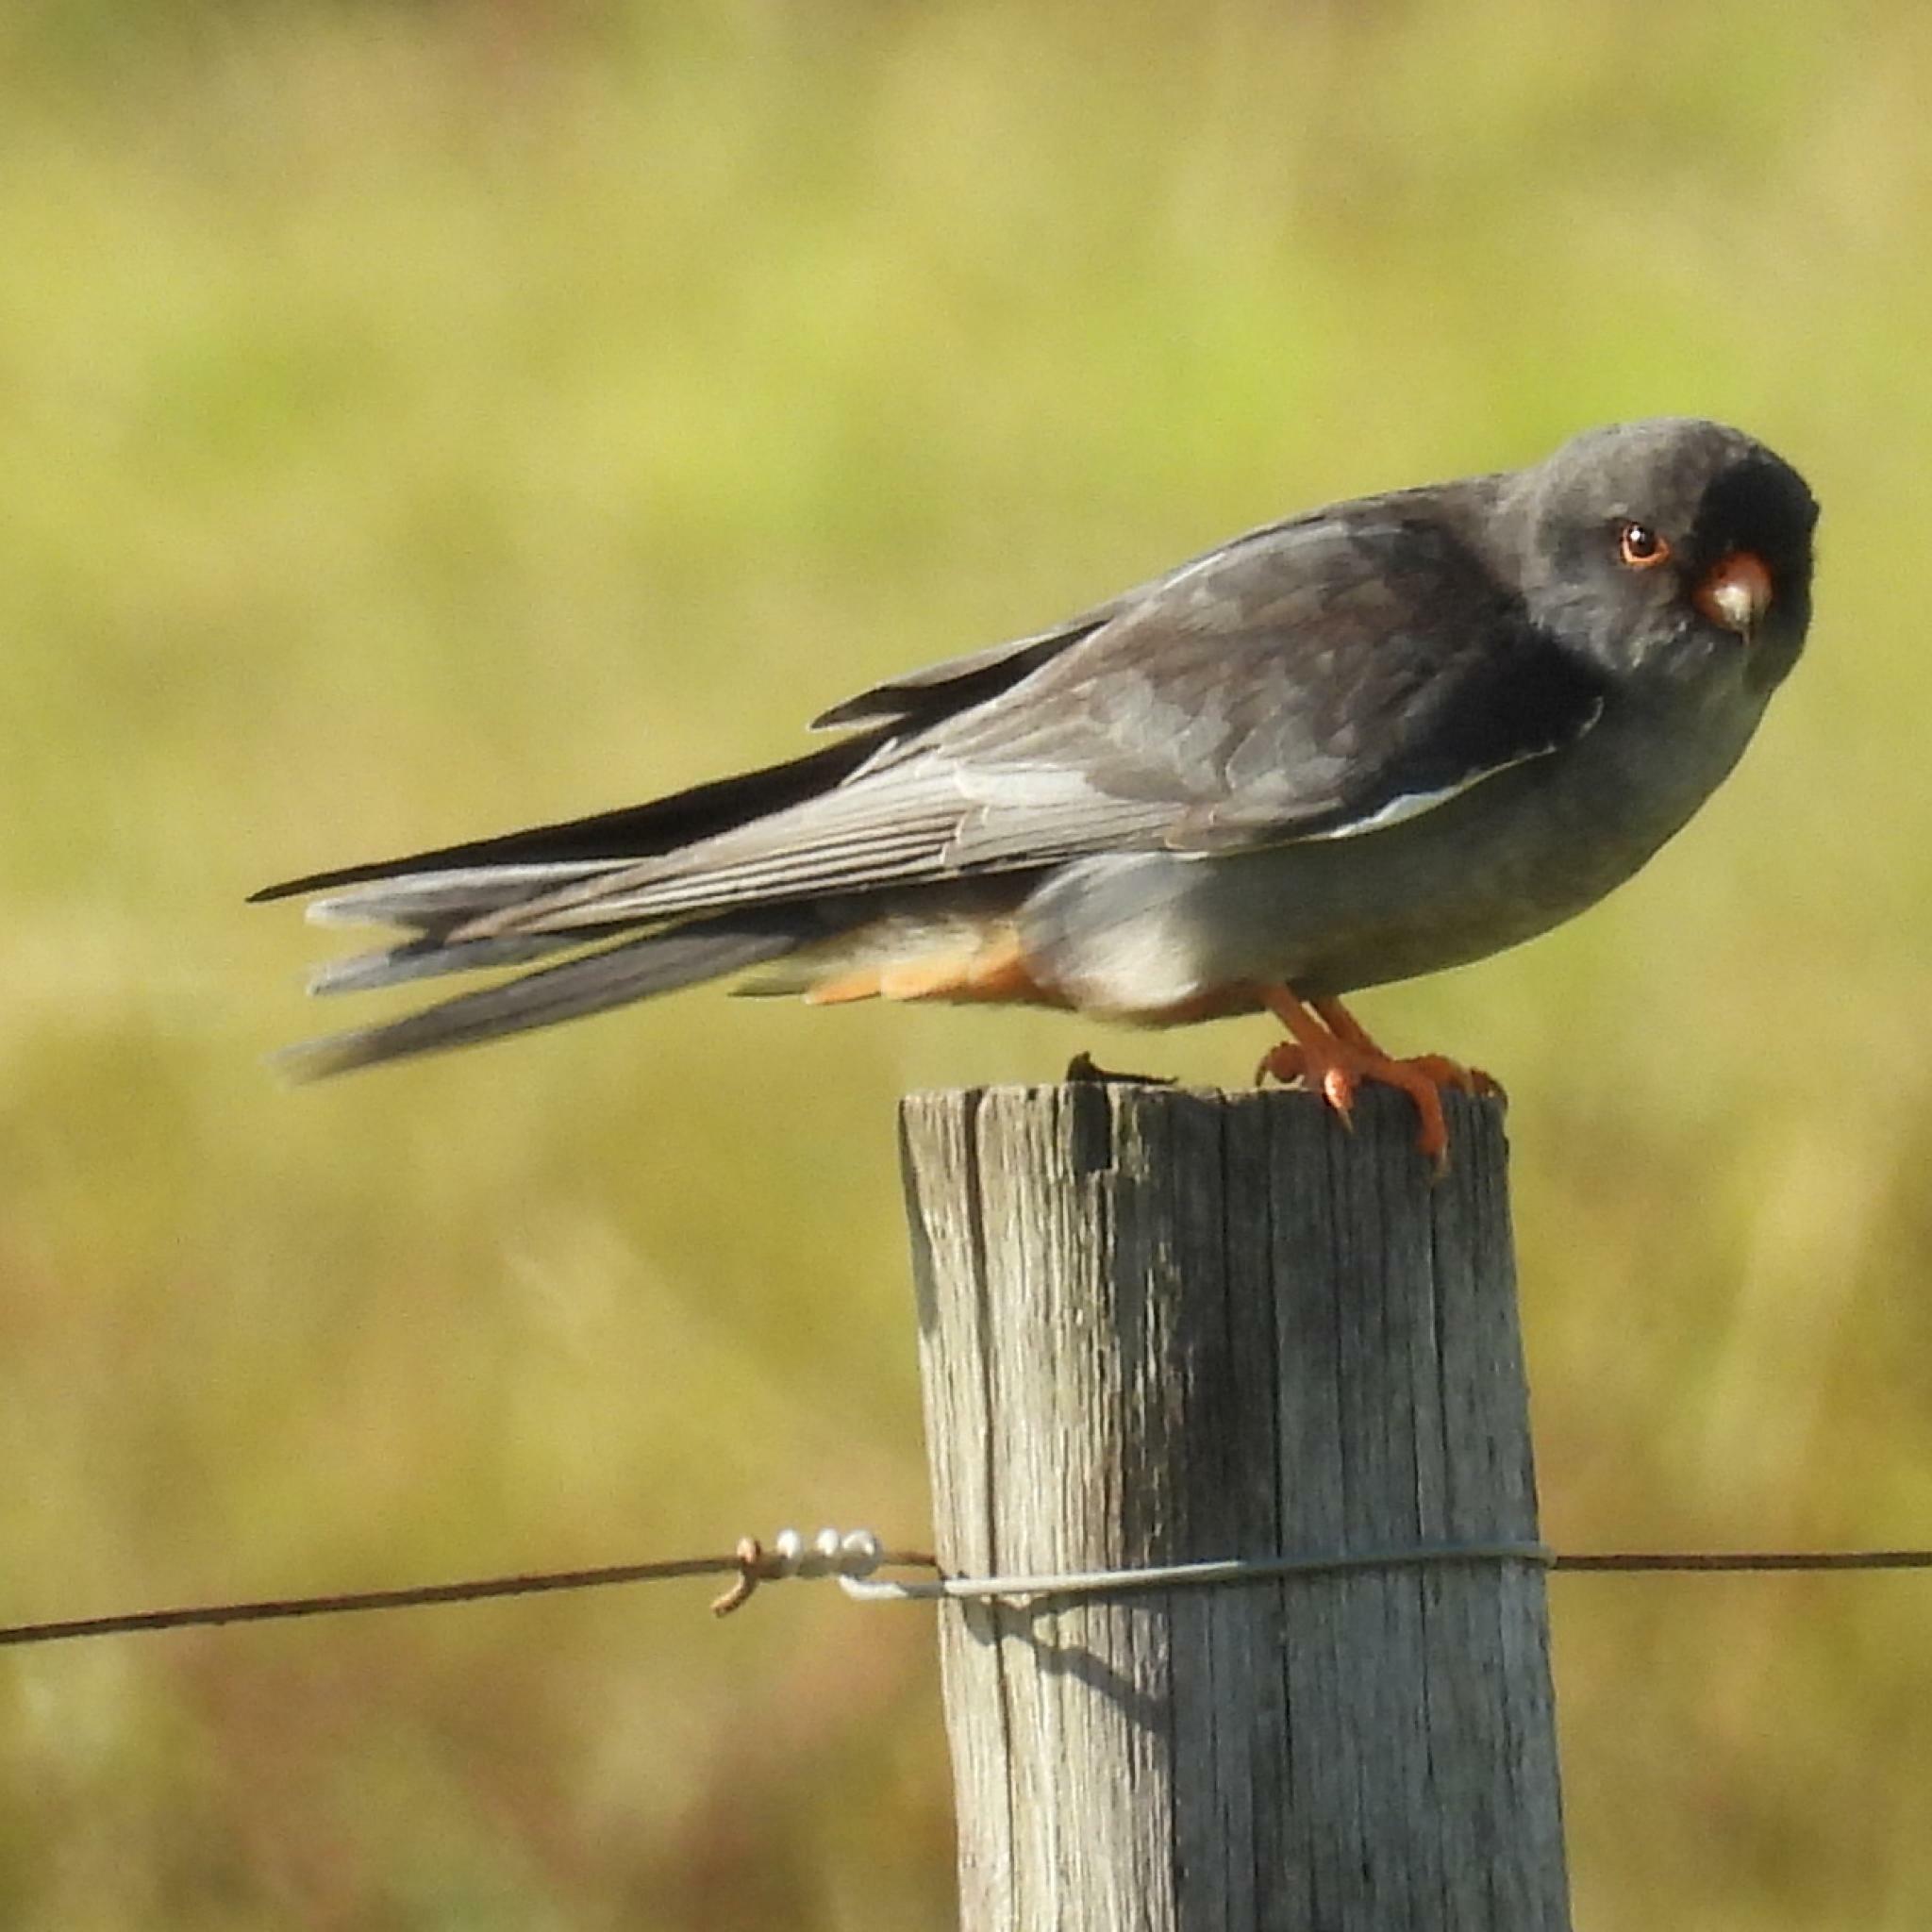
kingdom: Animalia
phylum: Chordata
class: Aves
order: Falconiformes
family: Falconidae
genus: Falco
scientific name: Falco amurensis
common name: Amur falcon
